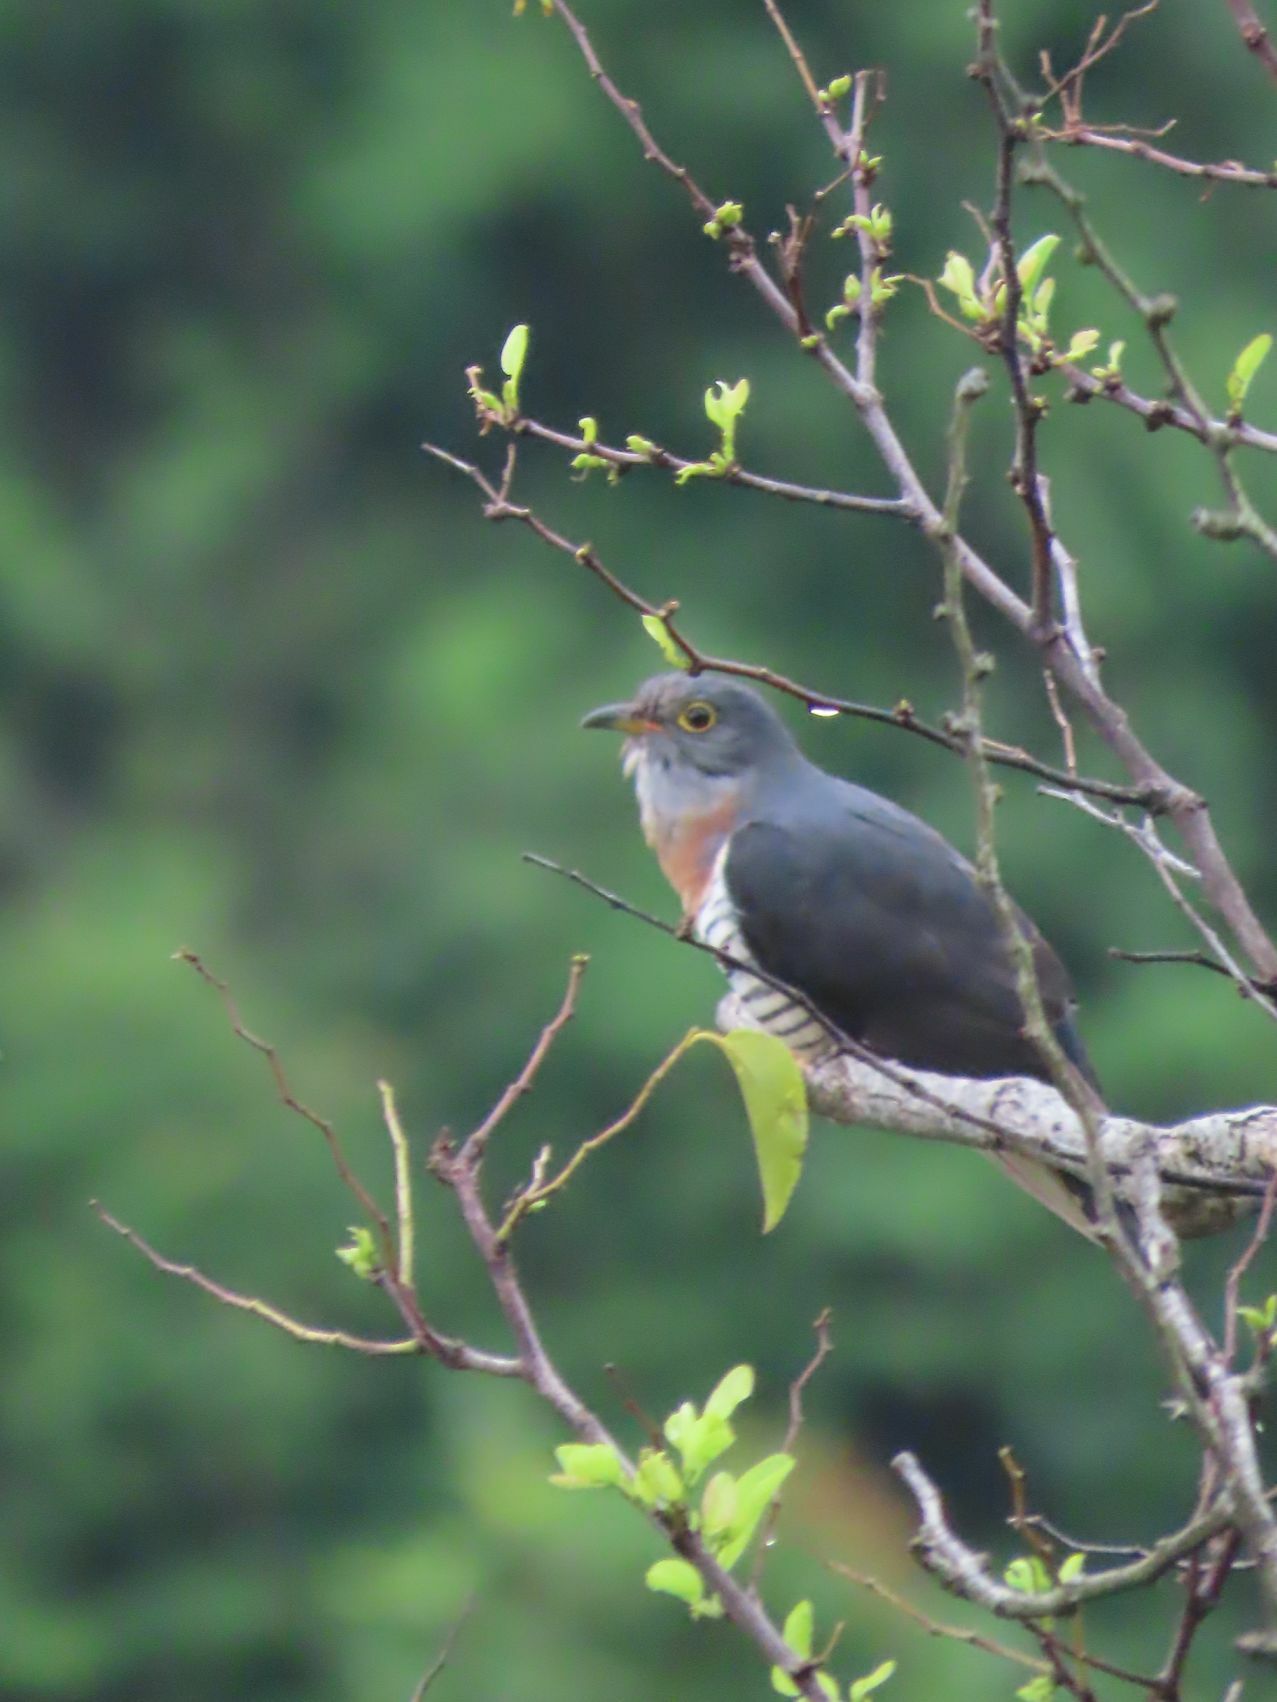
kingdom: Animalia
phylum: Chordata
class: Aves
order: Cuculiformes
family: Cuculidae
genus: Cuculus
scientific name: Cuculus solitarius
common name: Red-chested cuckoo
